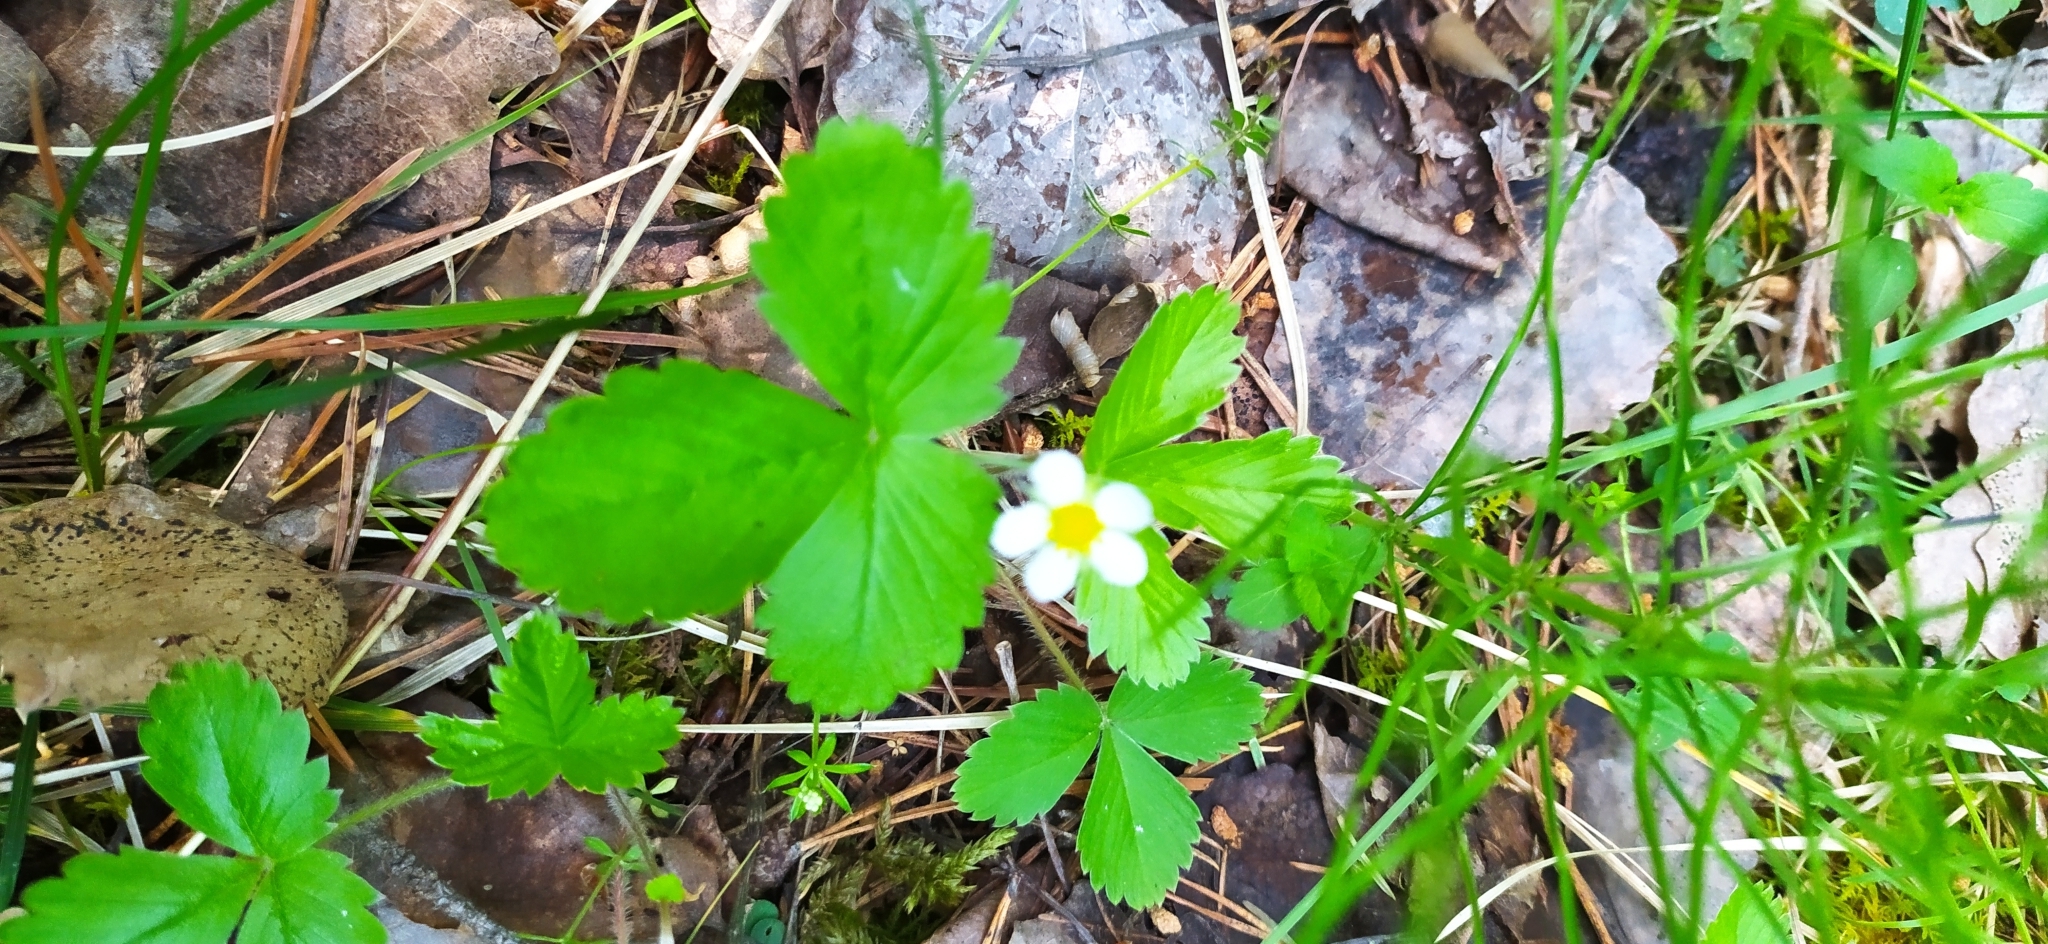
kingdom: Plantae
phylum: Tracheophyta
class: Magnoliopsida
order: Rosales
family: Rosaceae
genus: Fragaria
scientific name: Fragaria vesca
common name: Wild strawberry
